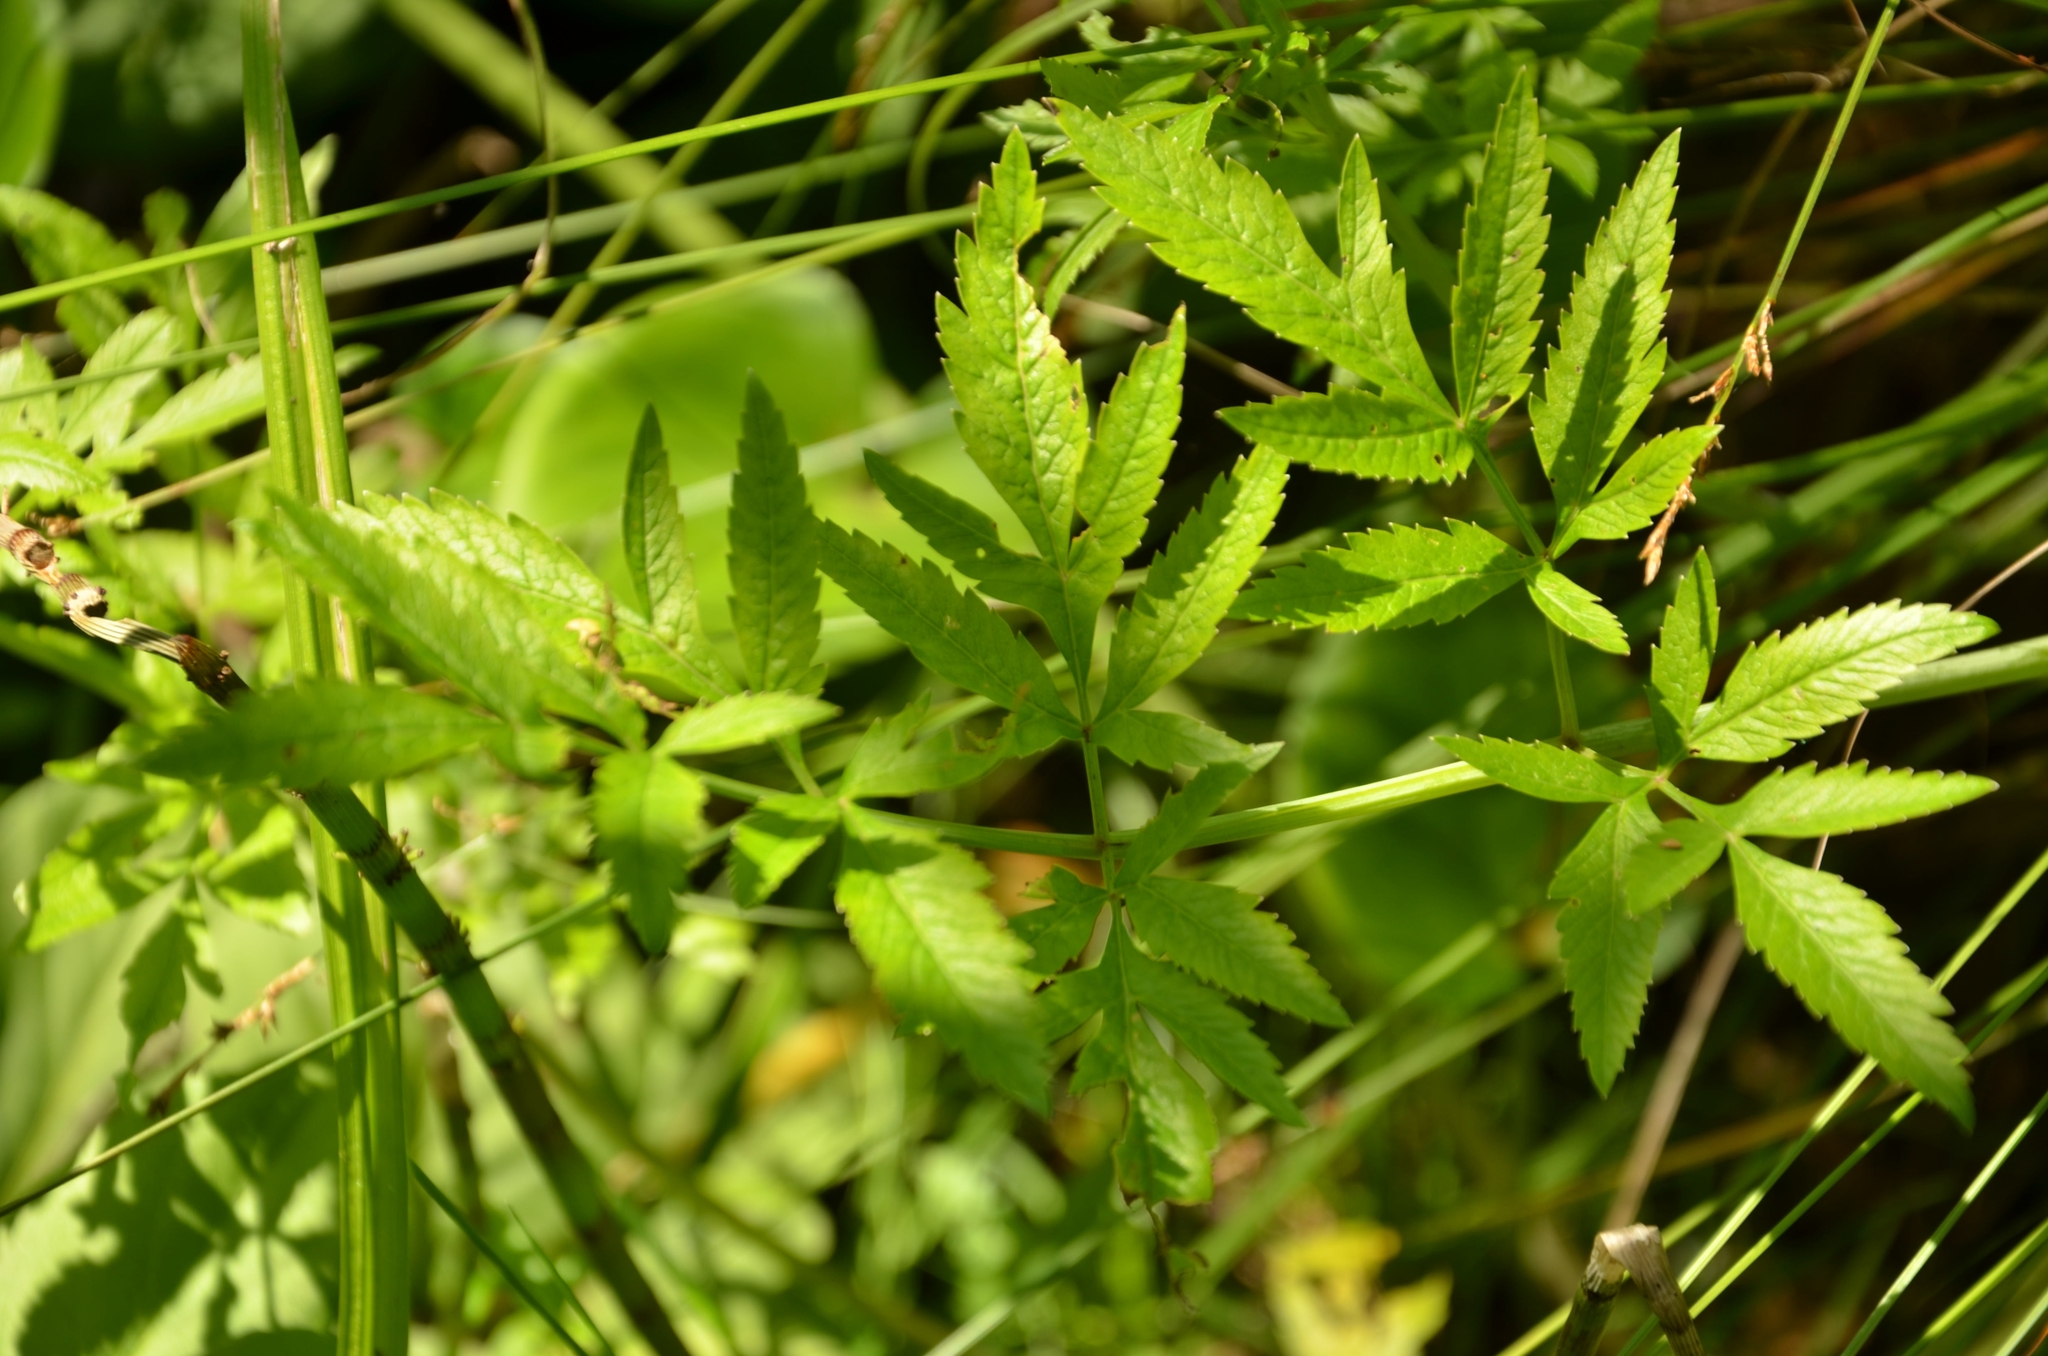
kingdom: Plantae
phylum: Tracheophyta
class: Magnoliopsida
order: Apiales
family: Apiaceae
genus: Cicuta
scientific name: Cicuta virosa
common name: Cowbane
